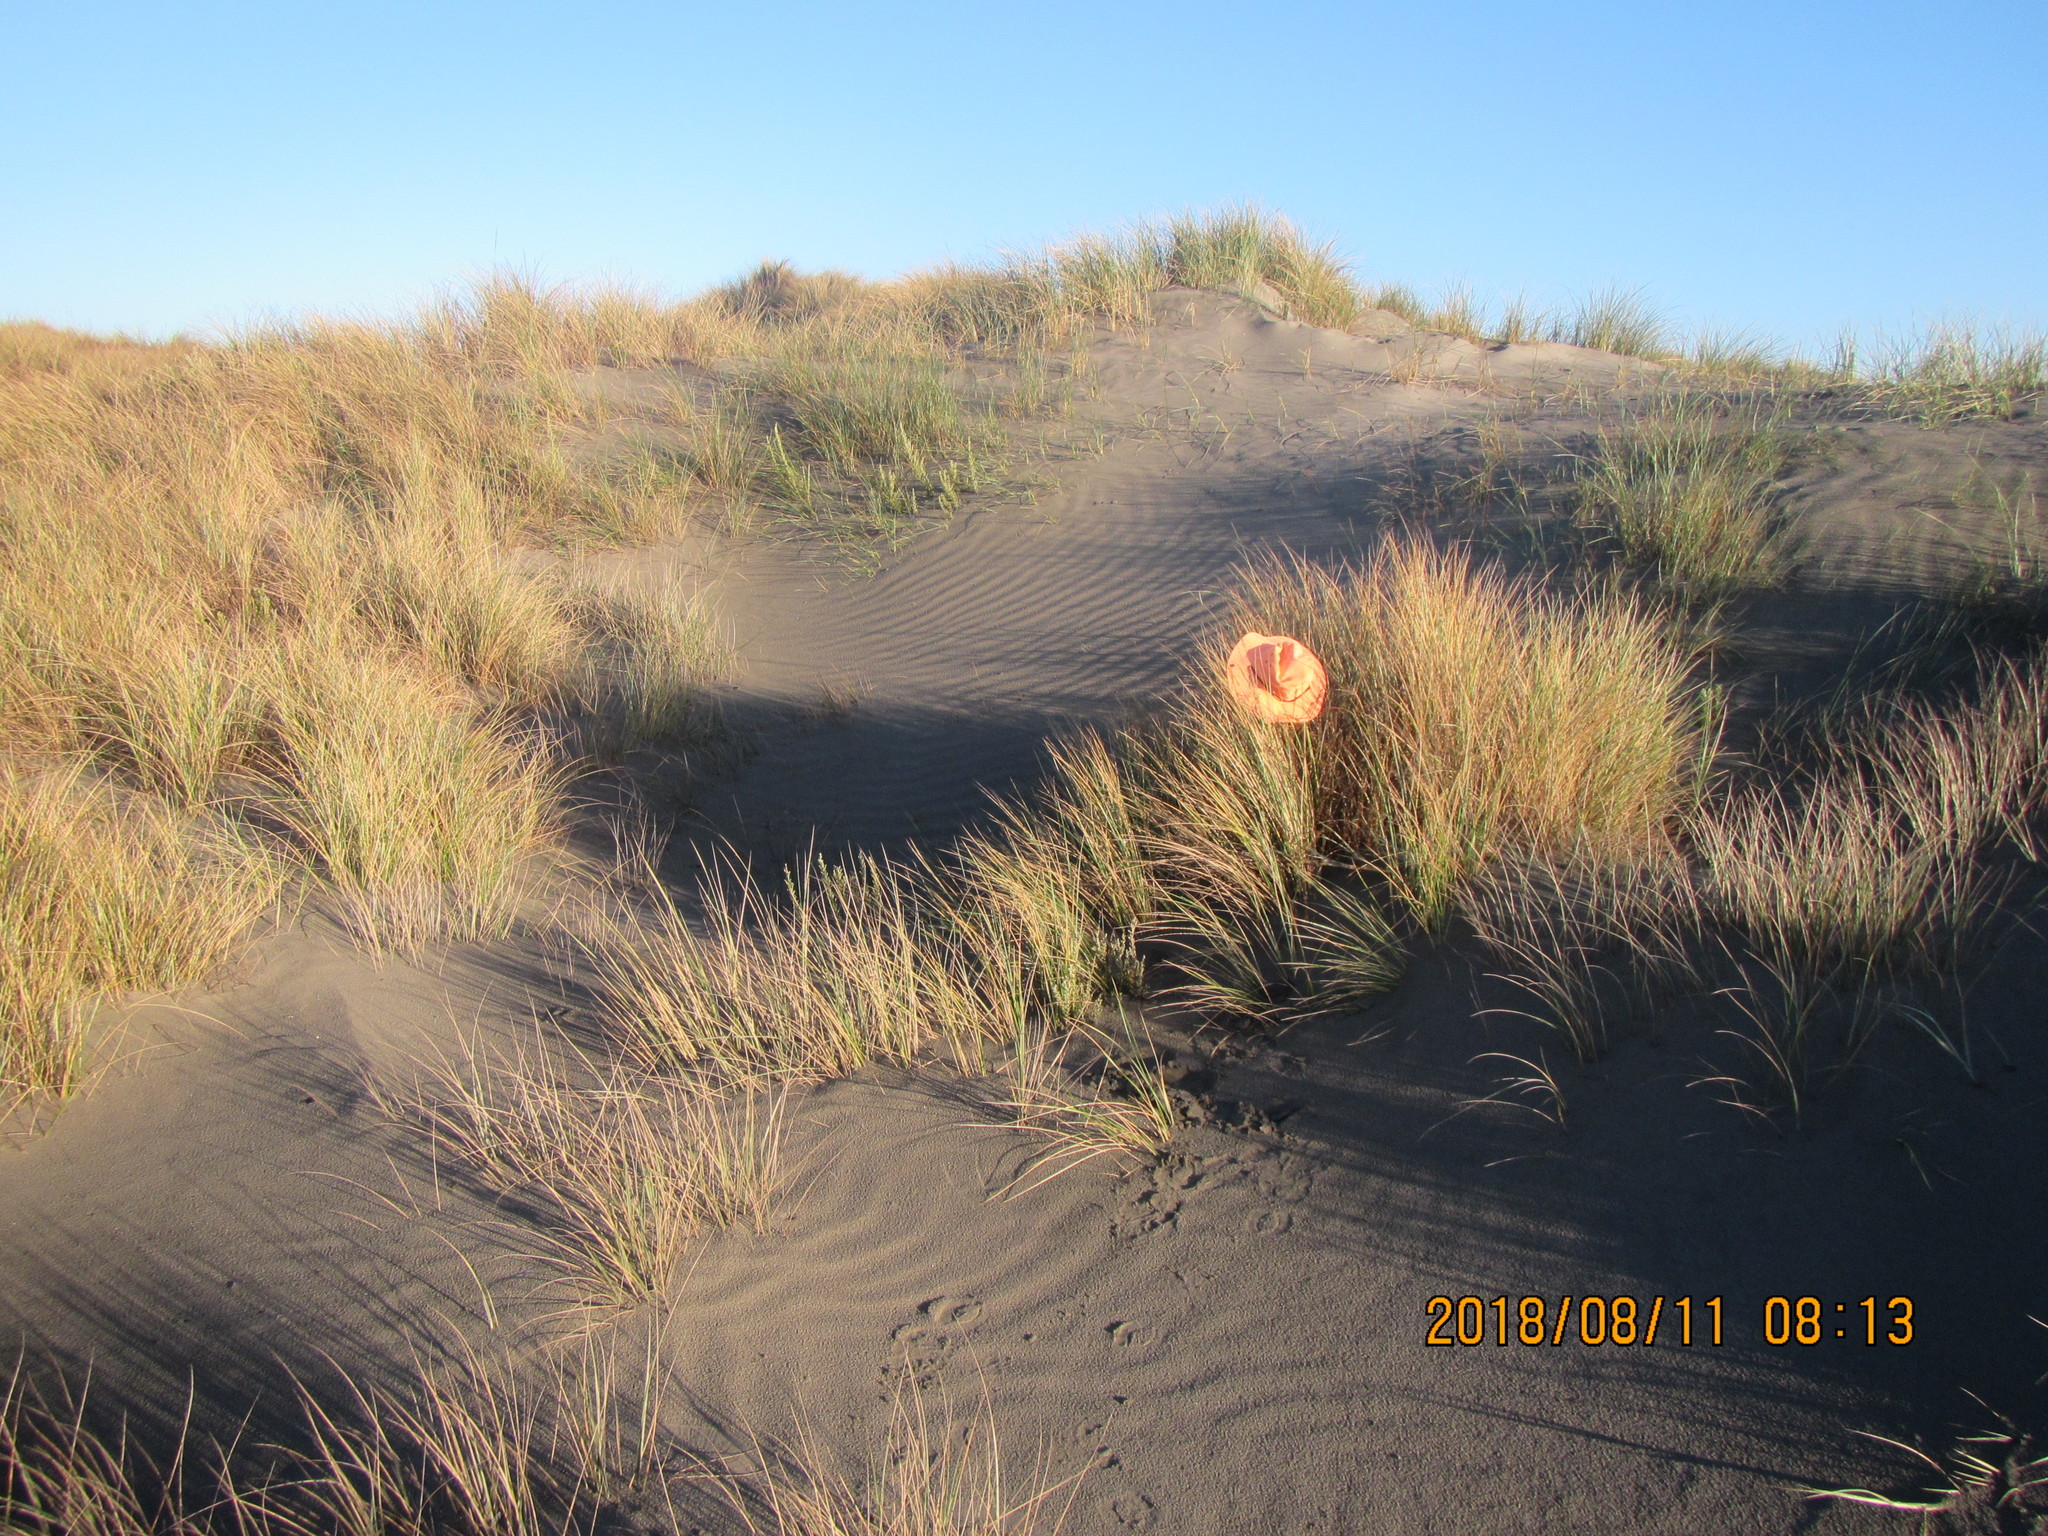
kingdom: Plantae
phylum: Tracheophyta
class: Magnoliopsida
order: Gentianales
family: Rubiaceae
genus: Coprosma
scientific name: Coprosma acerosa
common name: Sand coprosma
